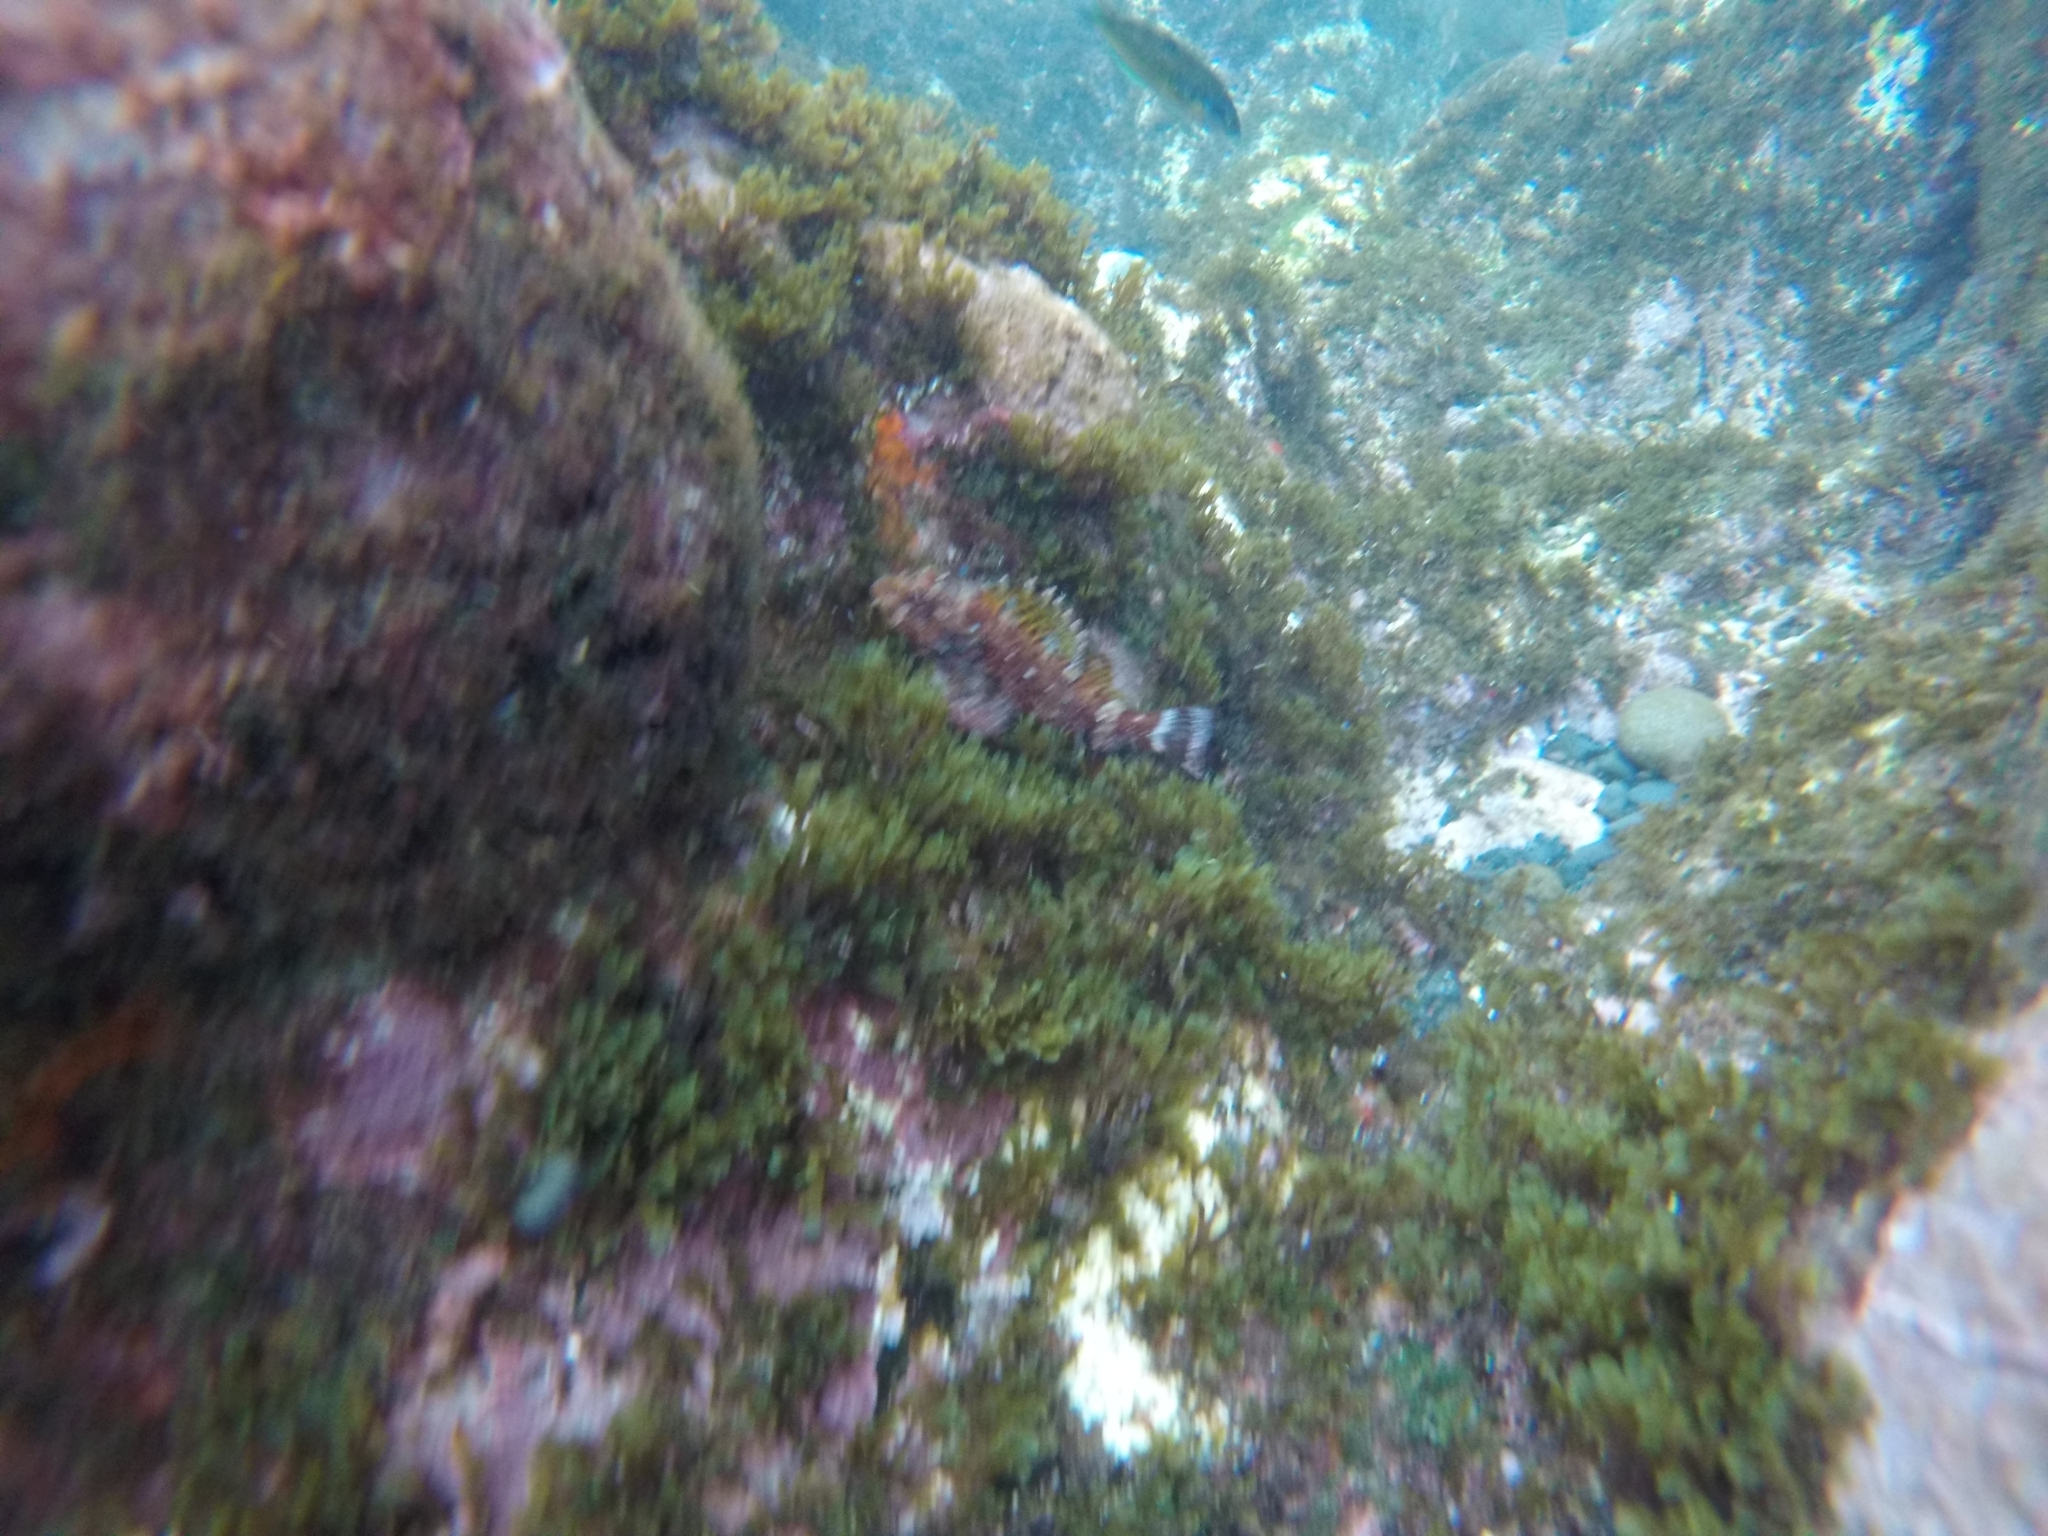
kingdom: Animalia
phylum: Chordata
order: Scorpaeniformes
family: Scorpaenidae
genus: Scorpaena
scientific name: Scorpaena maderensis
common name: Madeira rockfish
